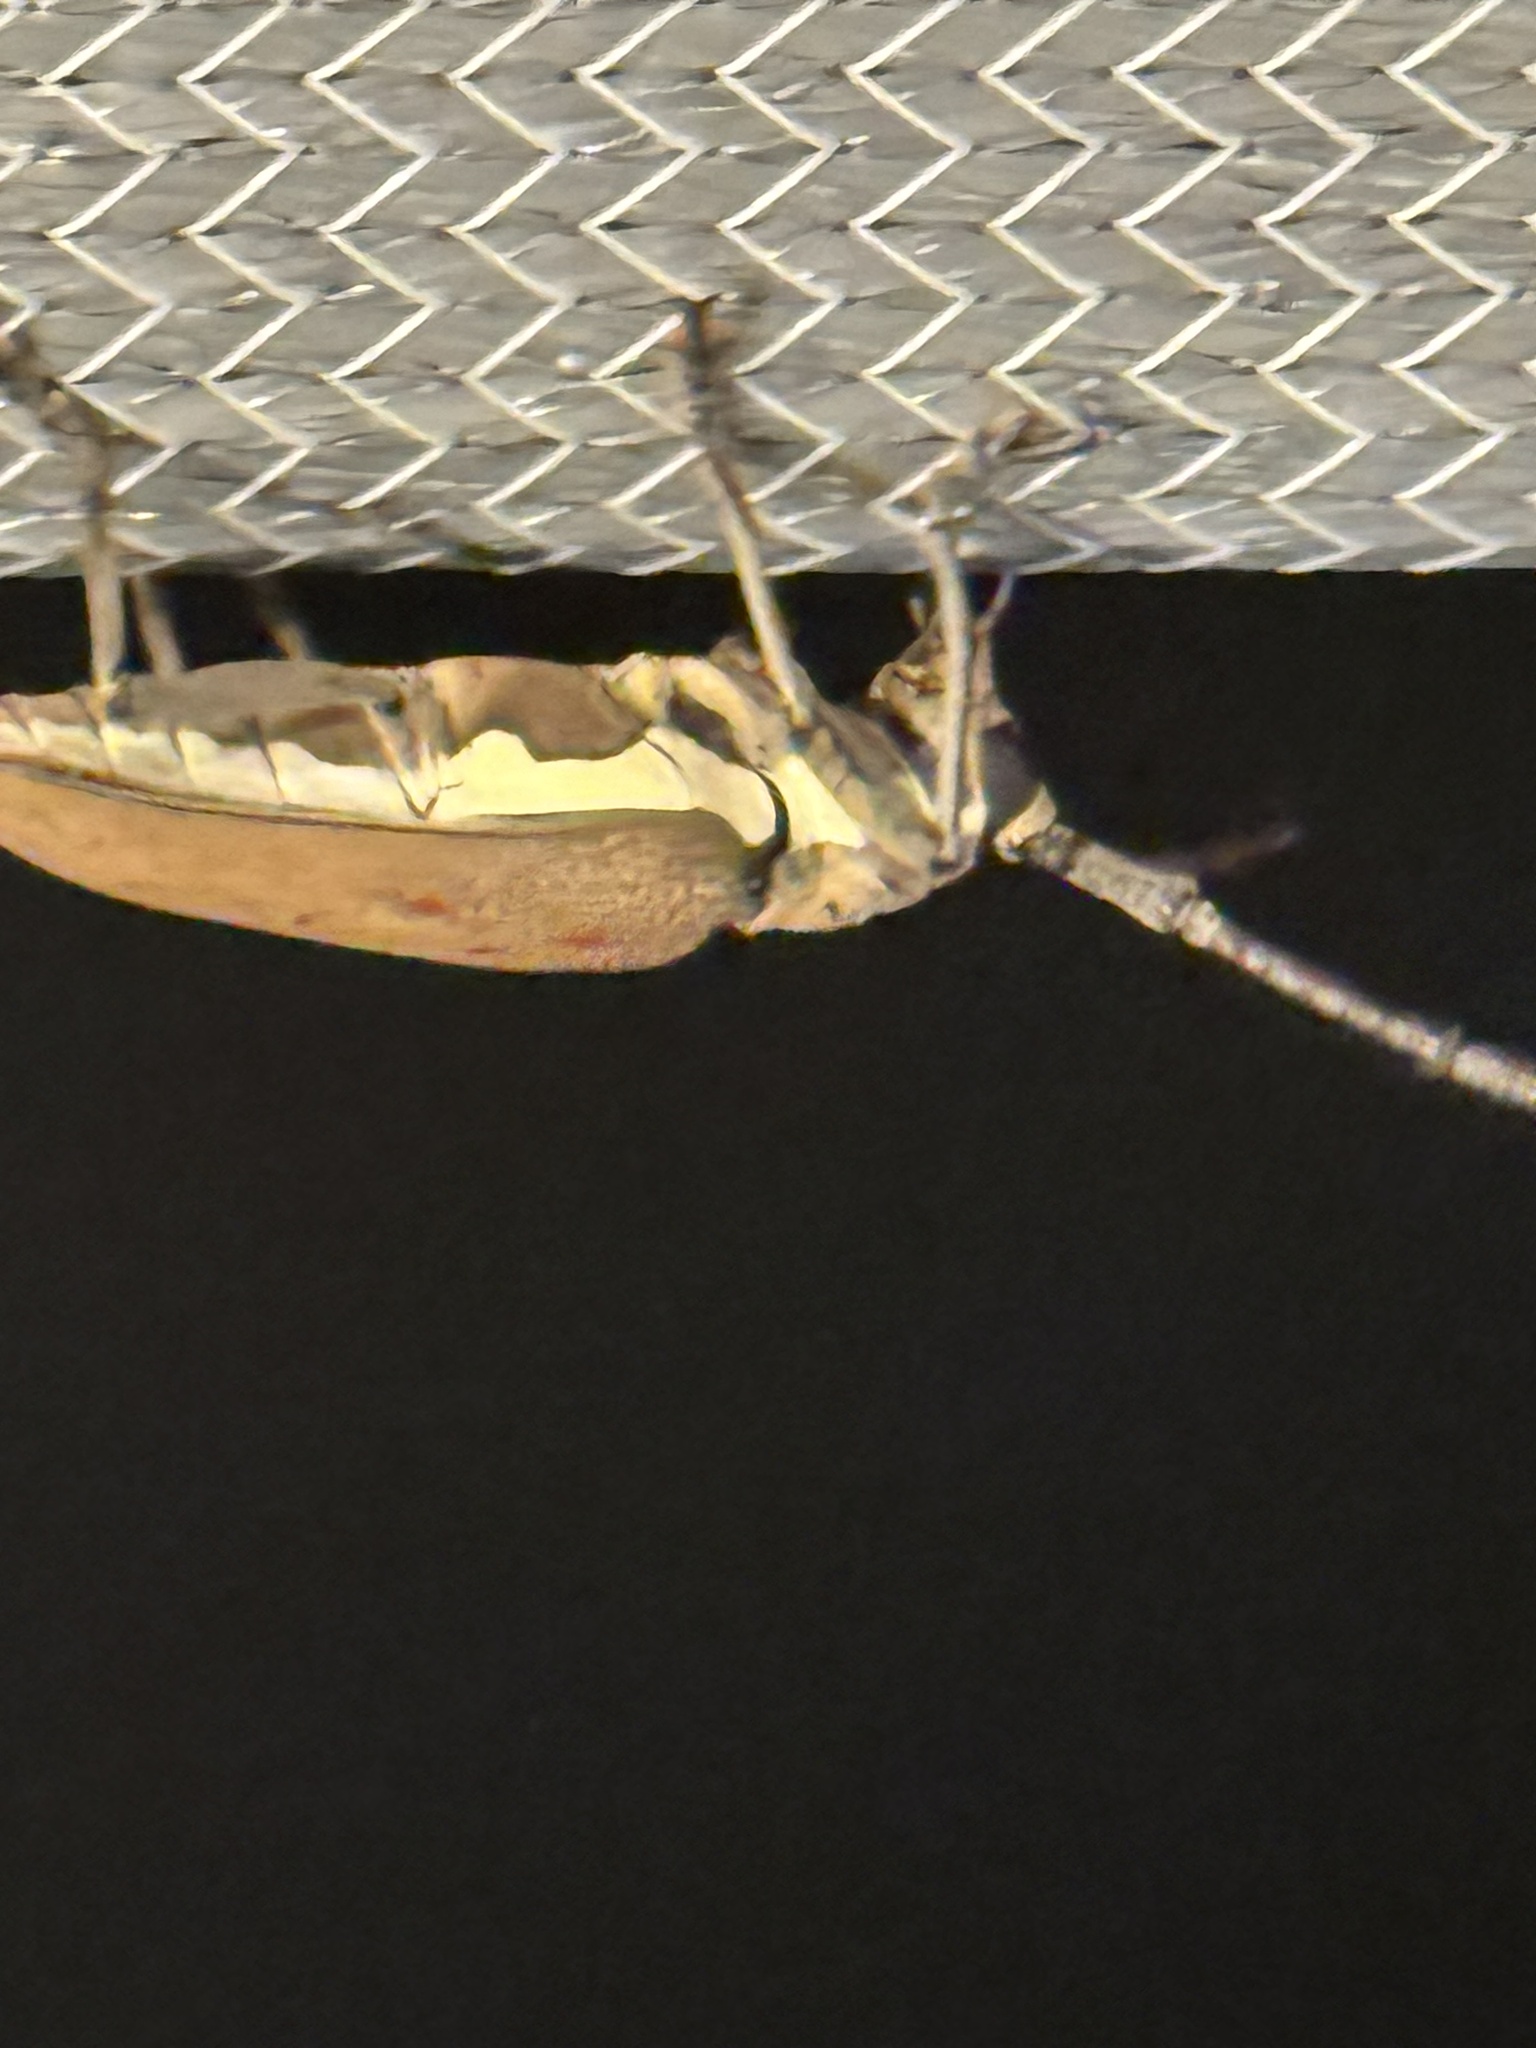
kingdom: Animalia
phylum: Arthropoda
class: Insecta
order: Coleoptera
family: Cerambycidae
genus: Batocera
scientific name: Batocera rufomaculata
